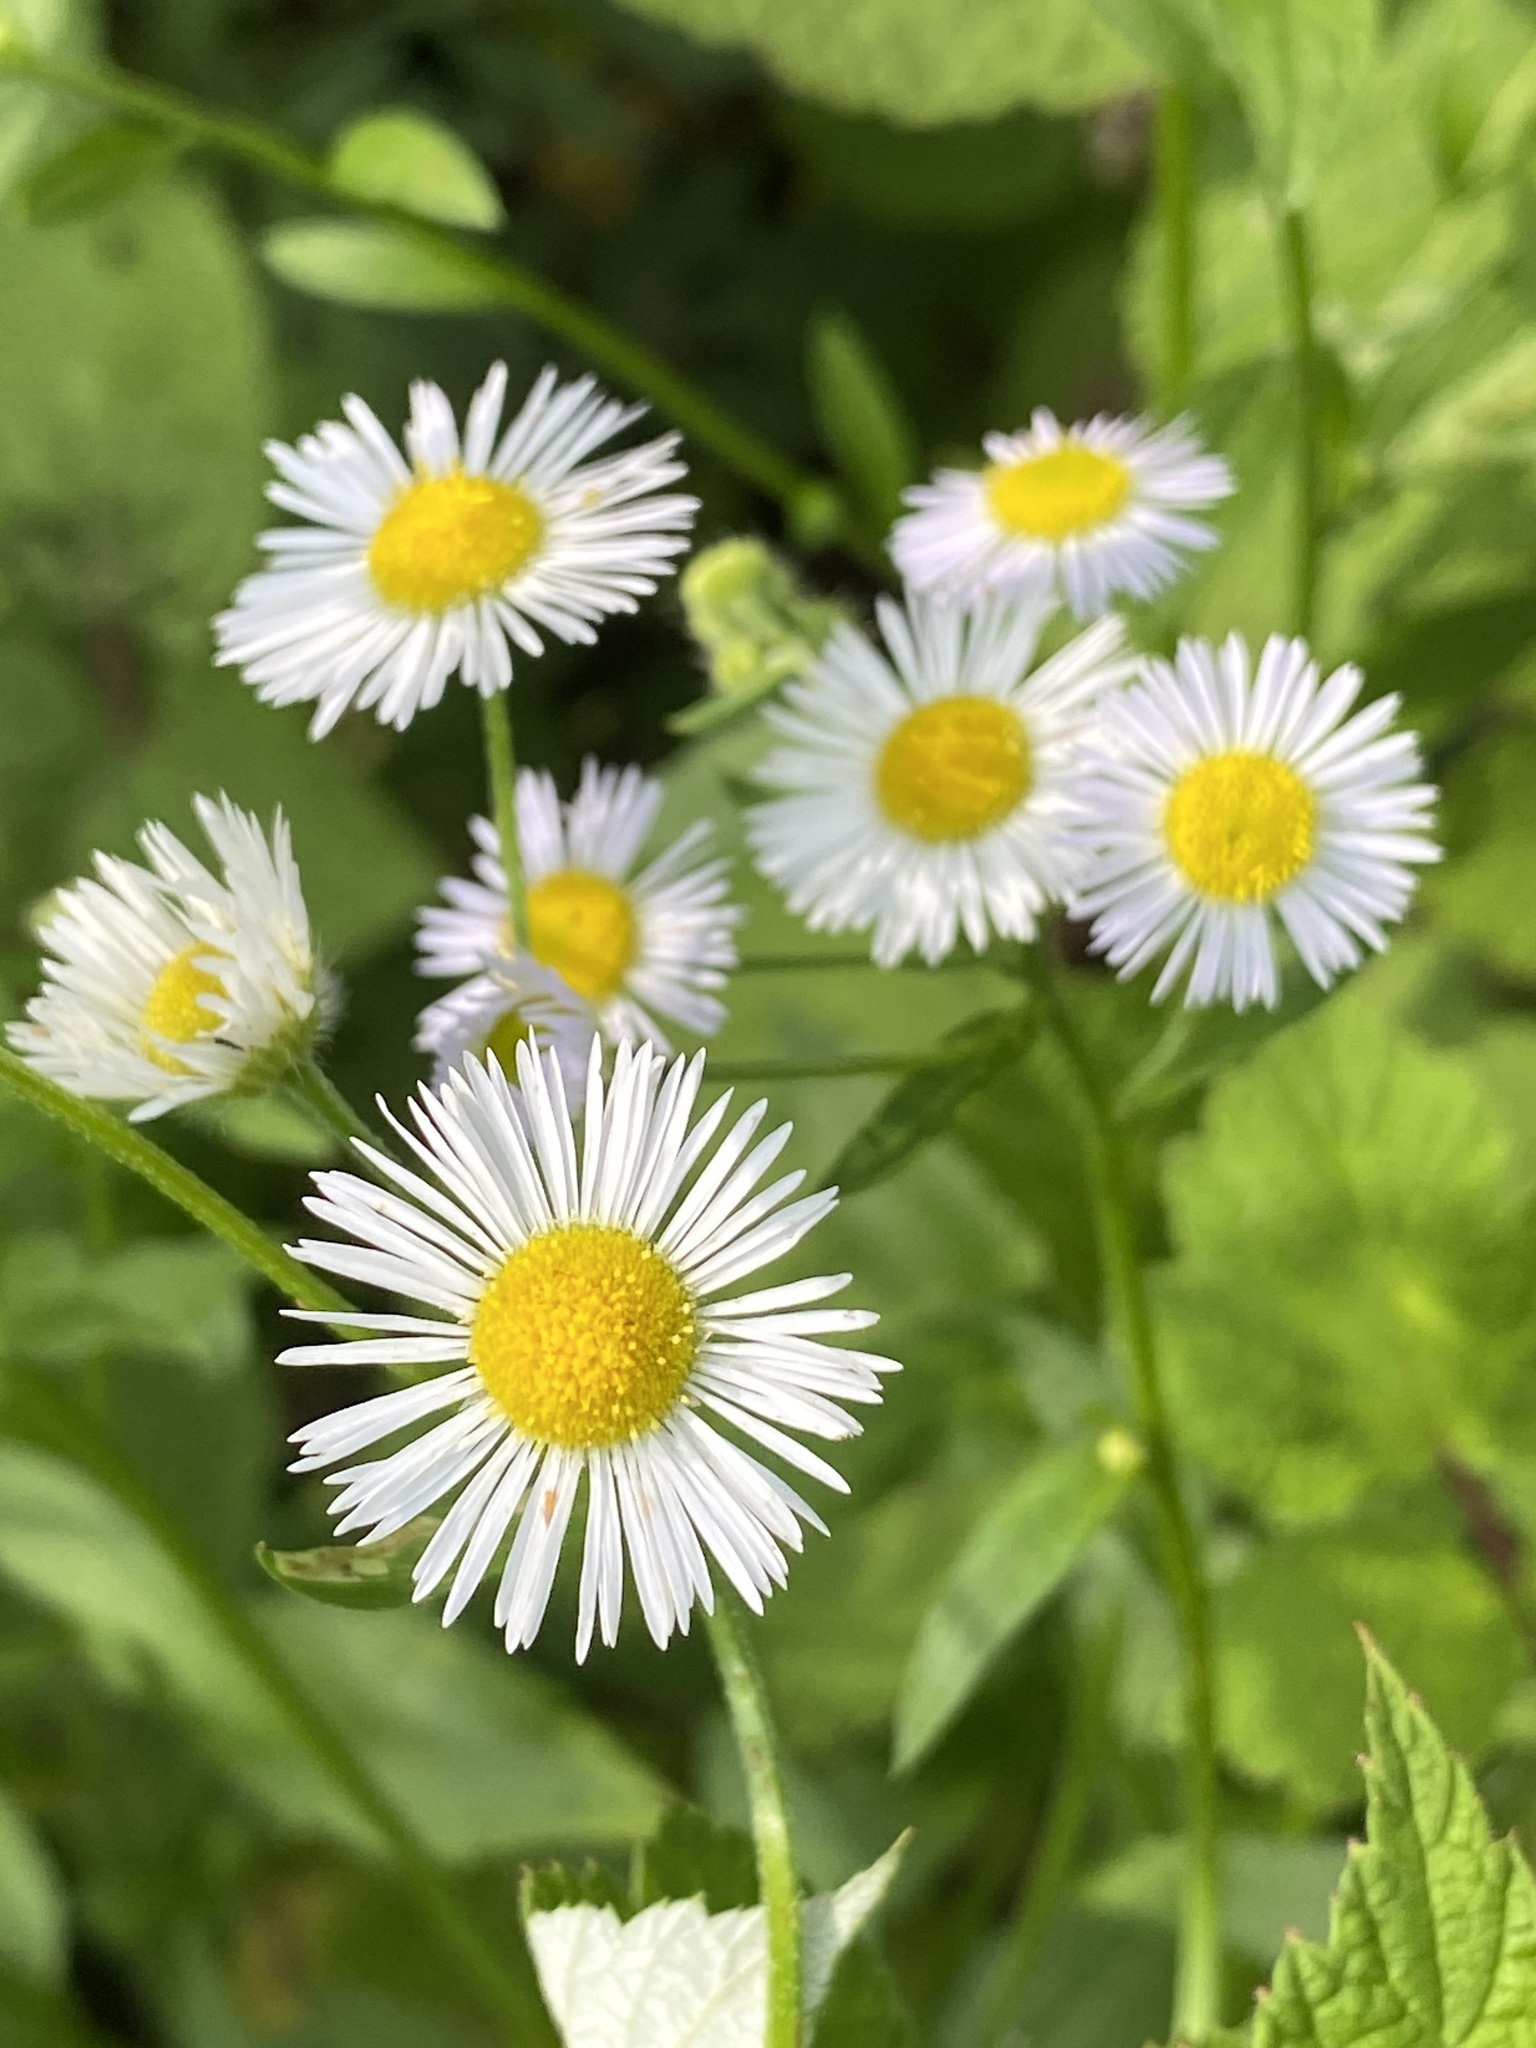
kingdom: Plantae
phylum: Tracheophyta
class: Magnoliopsida
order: Asterales
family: Asteraceae
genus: Erigeron
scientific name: Erigeron strigosus
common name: Common eastern fleabane
